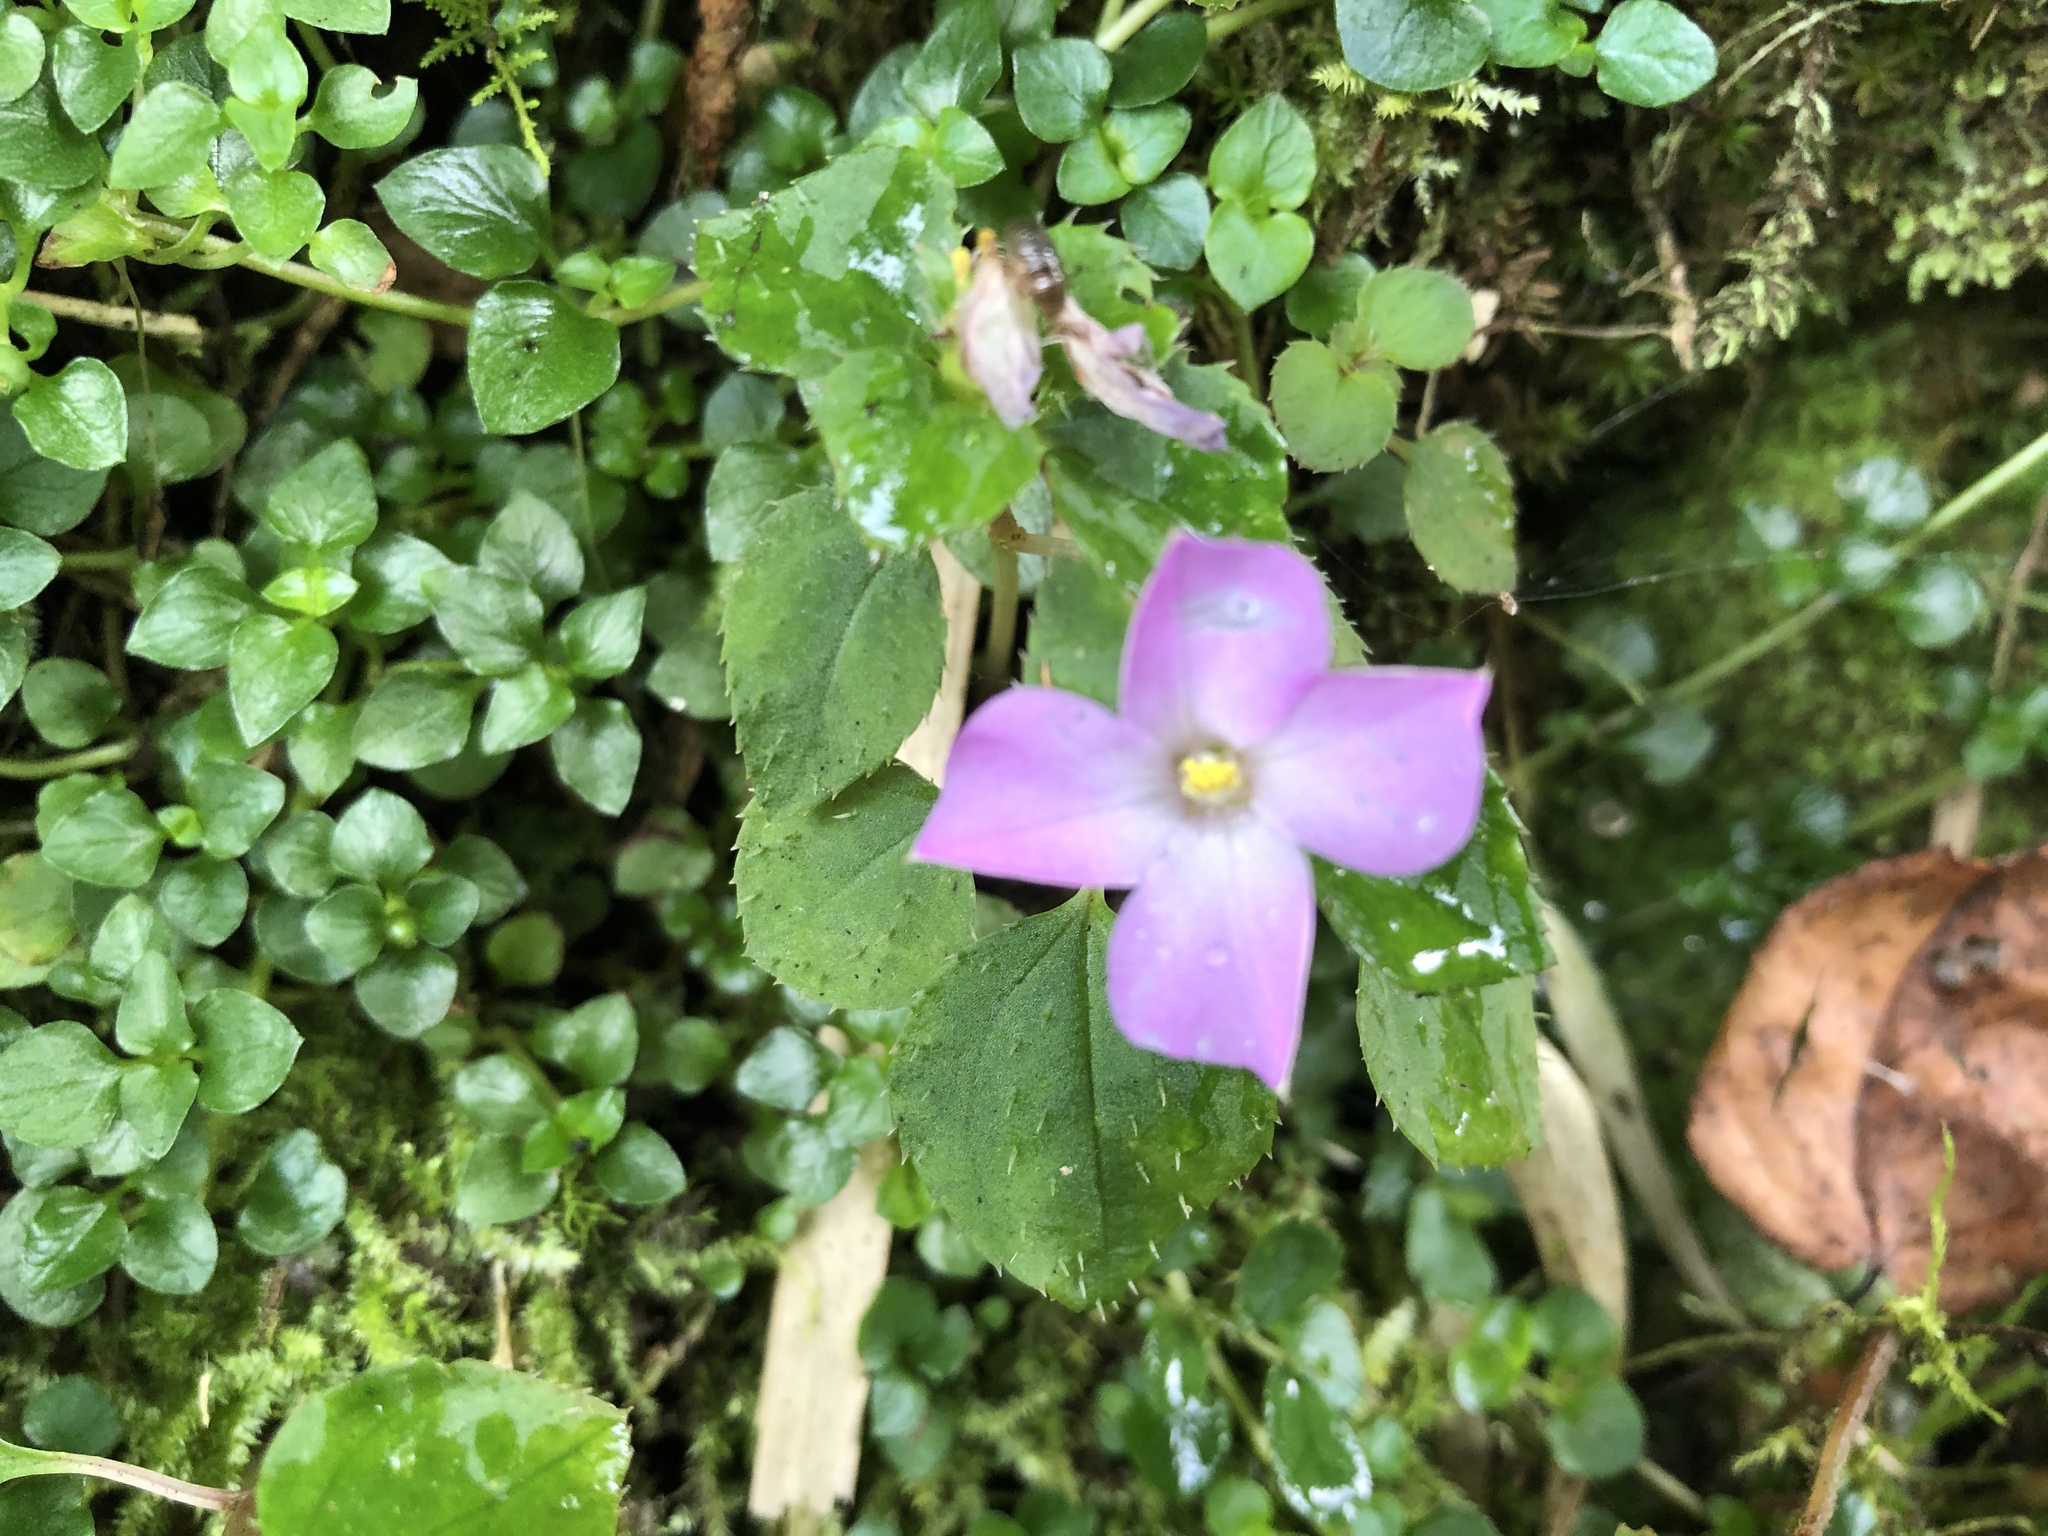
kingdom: Plantae
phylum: Tracheophyta
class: Magnoliopsida
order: Myrtales
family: Melastomataceae
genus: Sarcopyramis
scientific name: Sarcopyramis bodinieri
